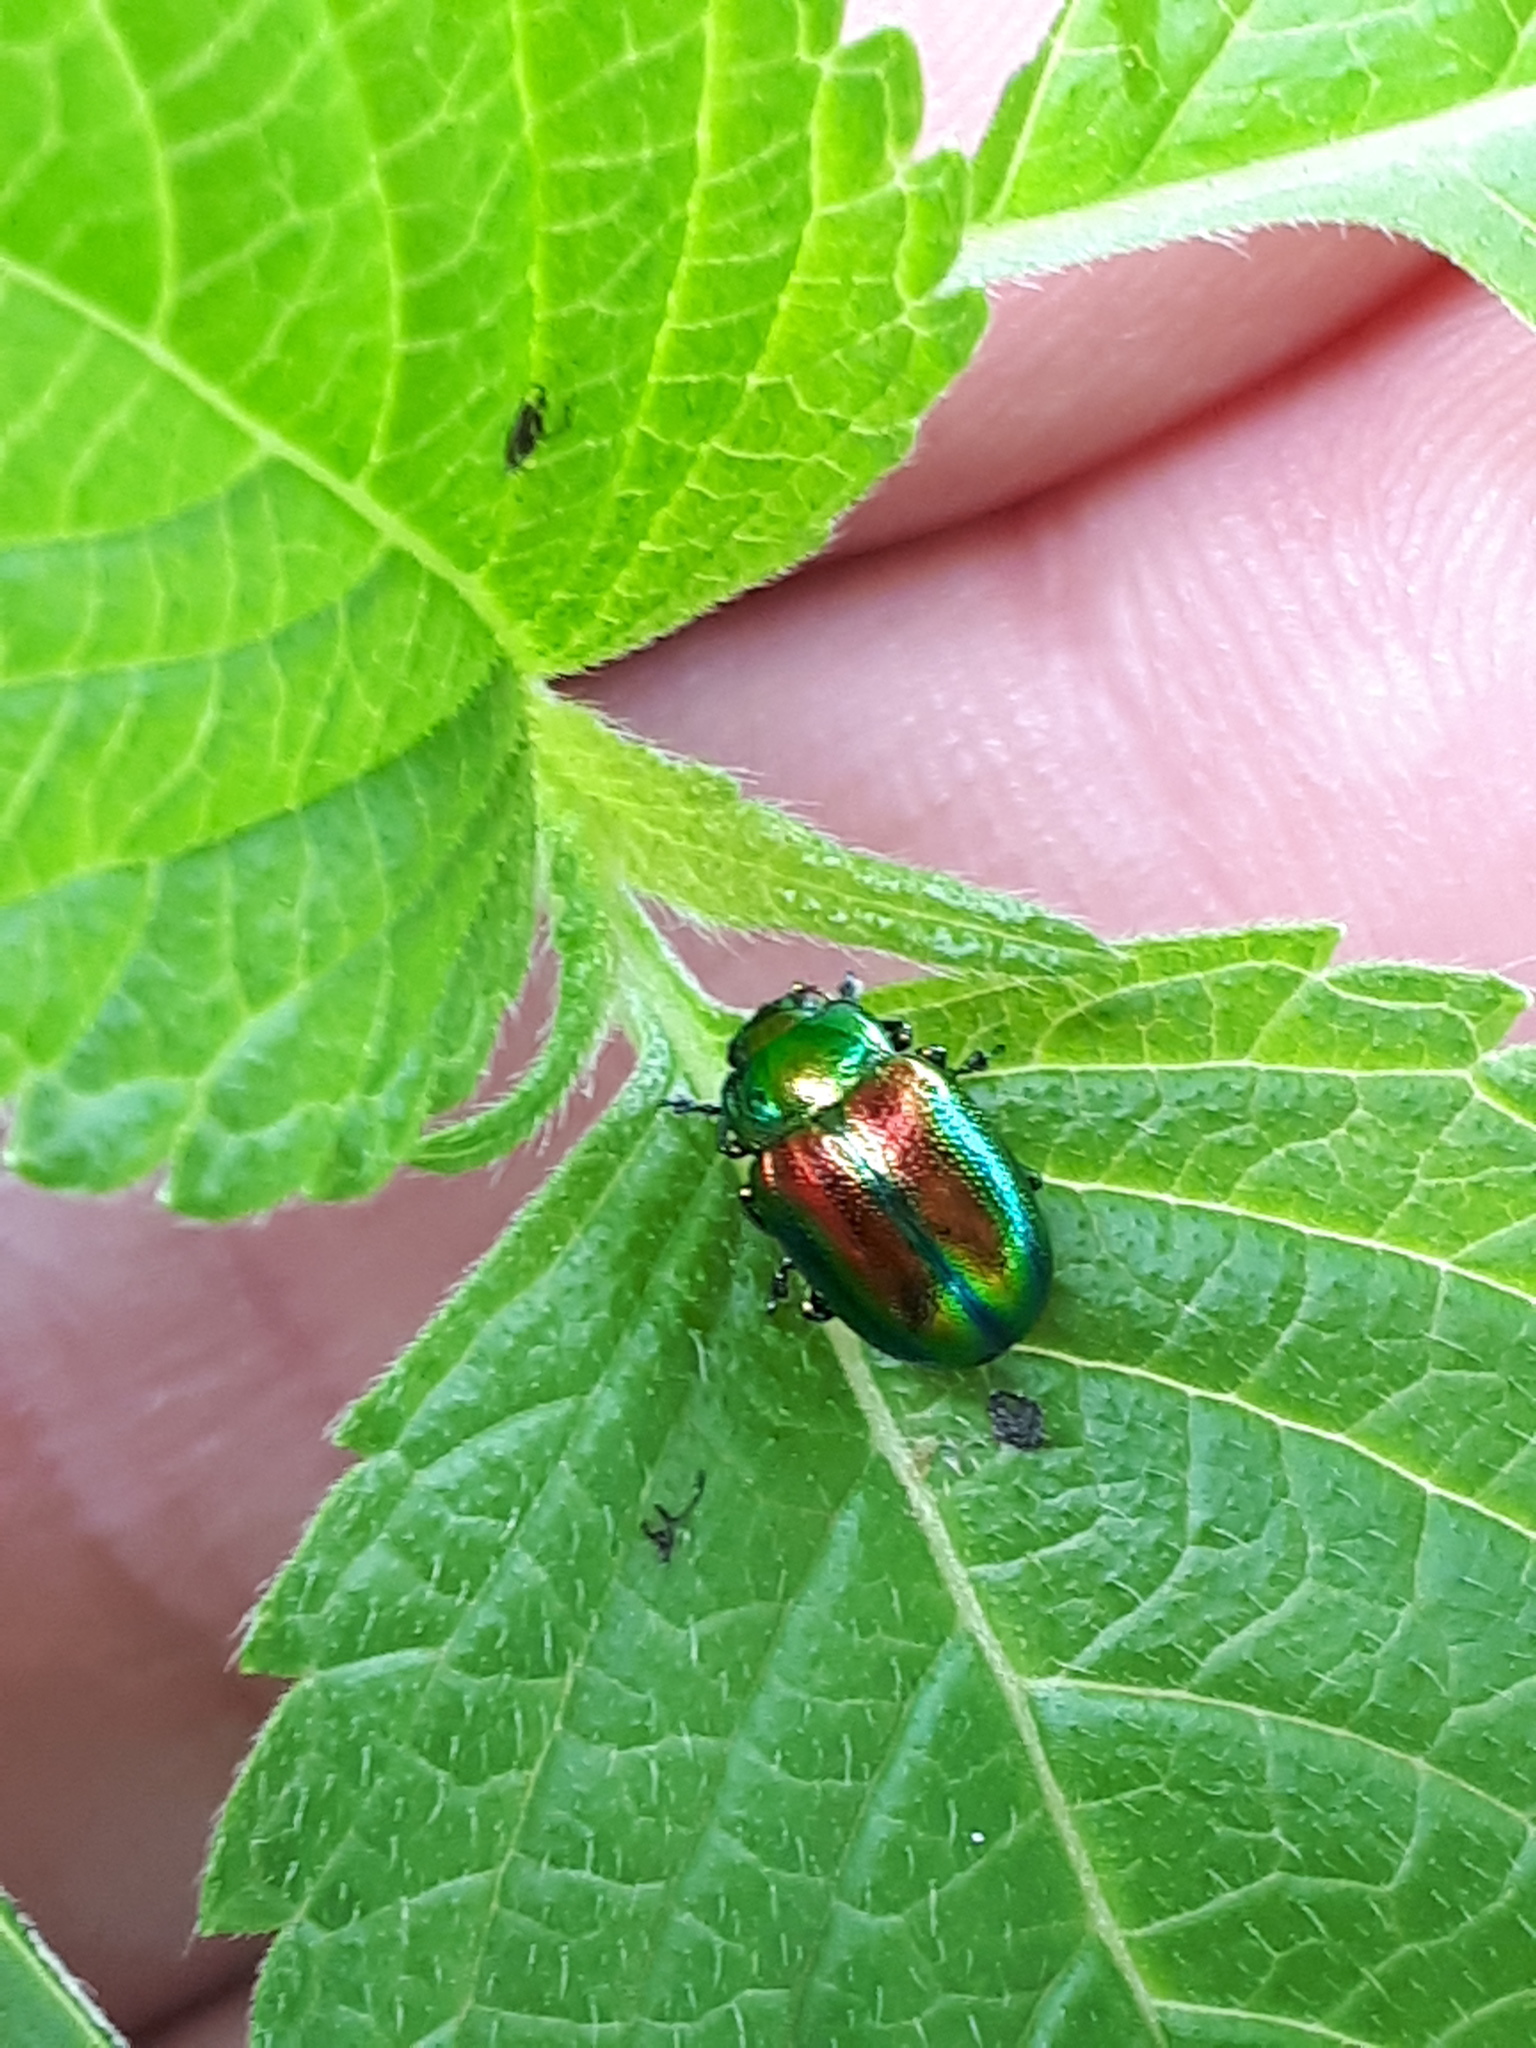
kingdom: Animalia
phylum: Arthropoda
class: Insecta
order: Coleoptera
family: Chrysomelidae
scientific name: Chrysomelidae
